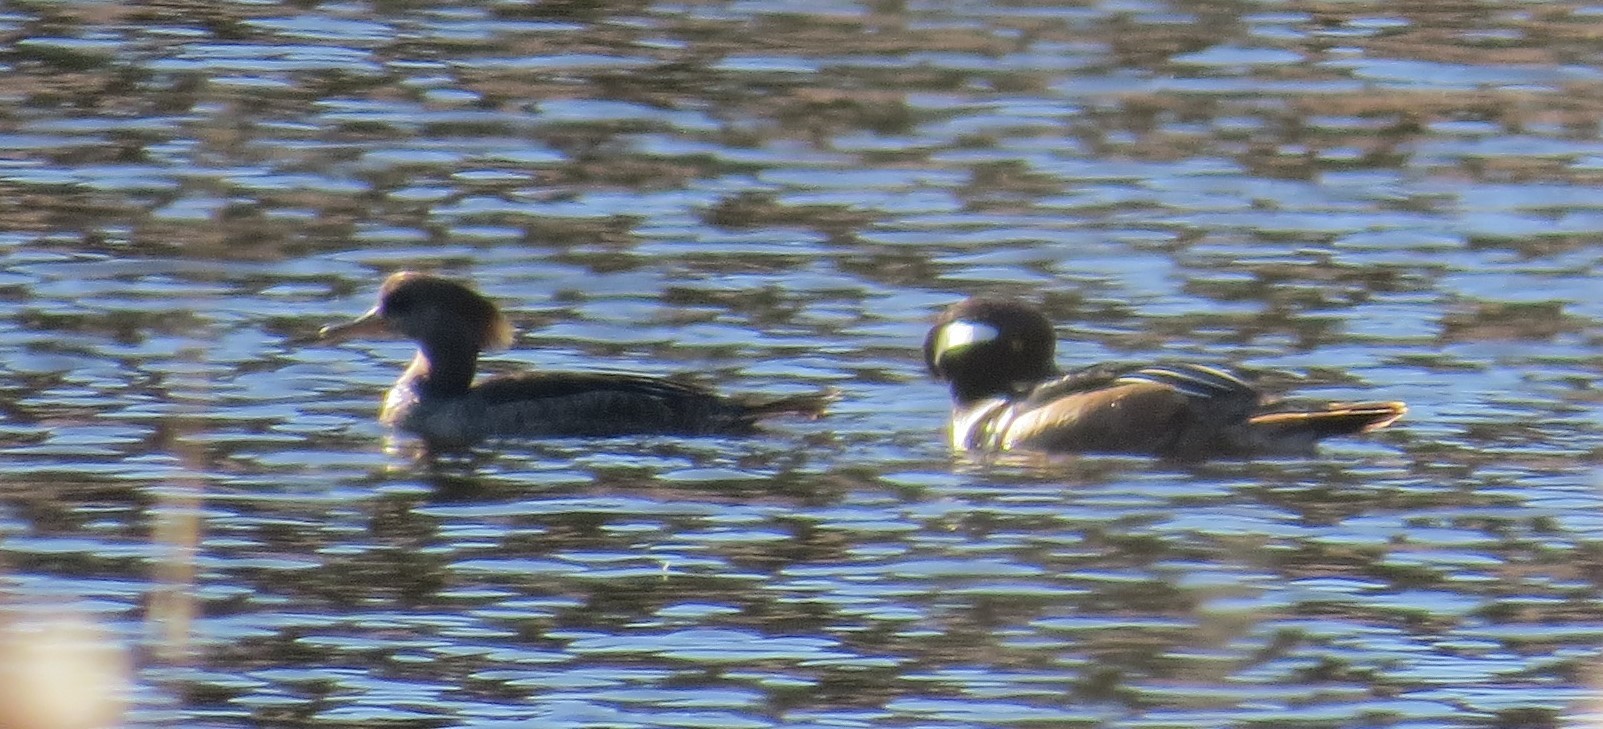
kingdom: Animalia
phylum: Chordata
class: Aves
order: Anseriformes
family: Anatidae
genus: Lophodytes
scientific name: Lophodytes cucullatus
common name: Hooded merganser
